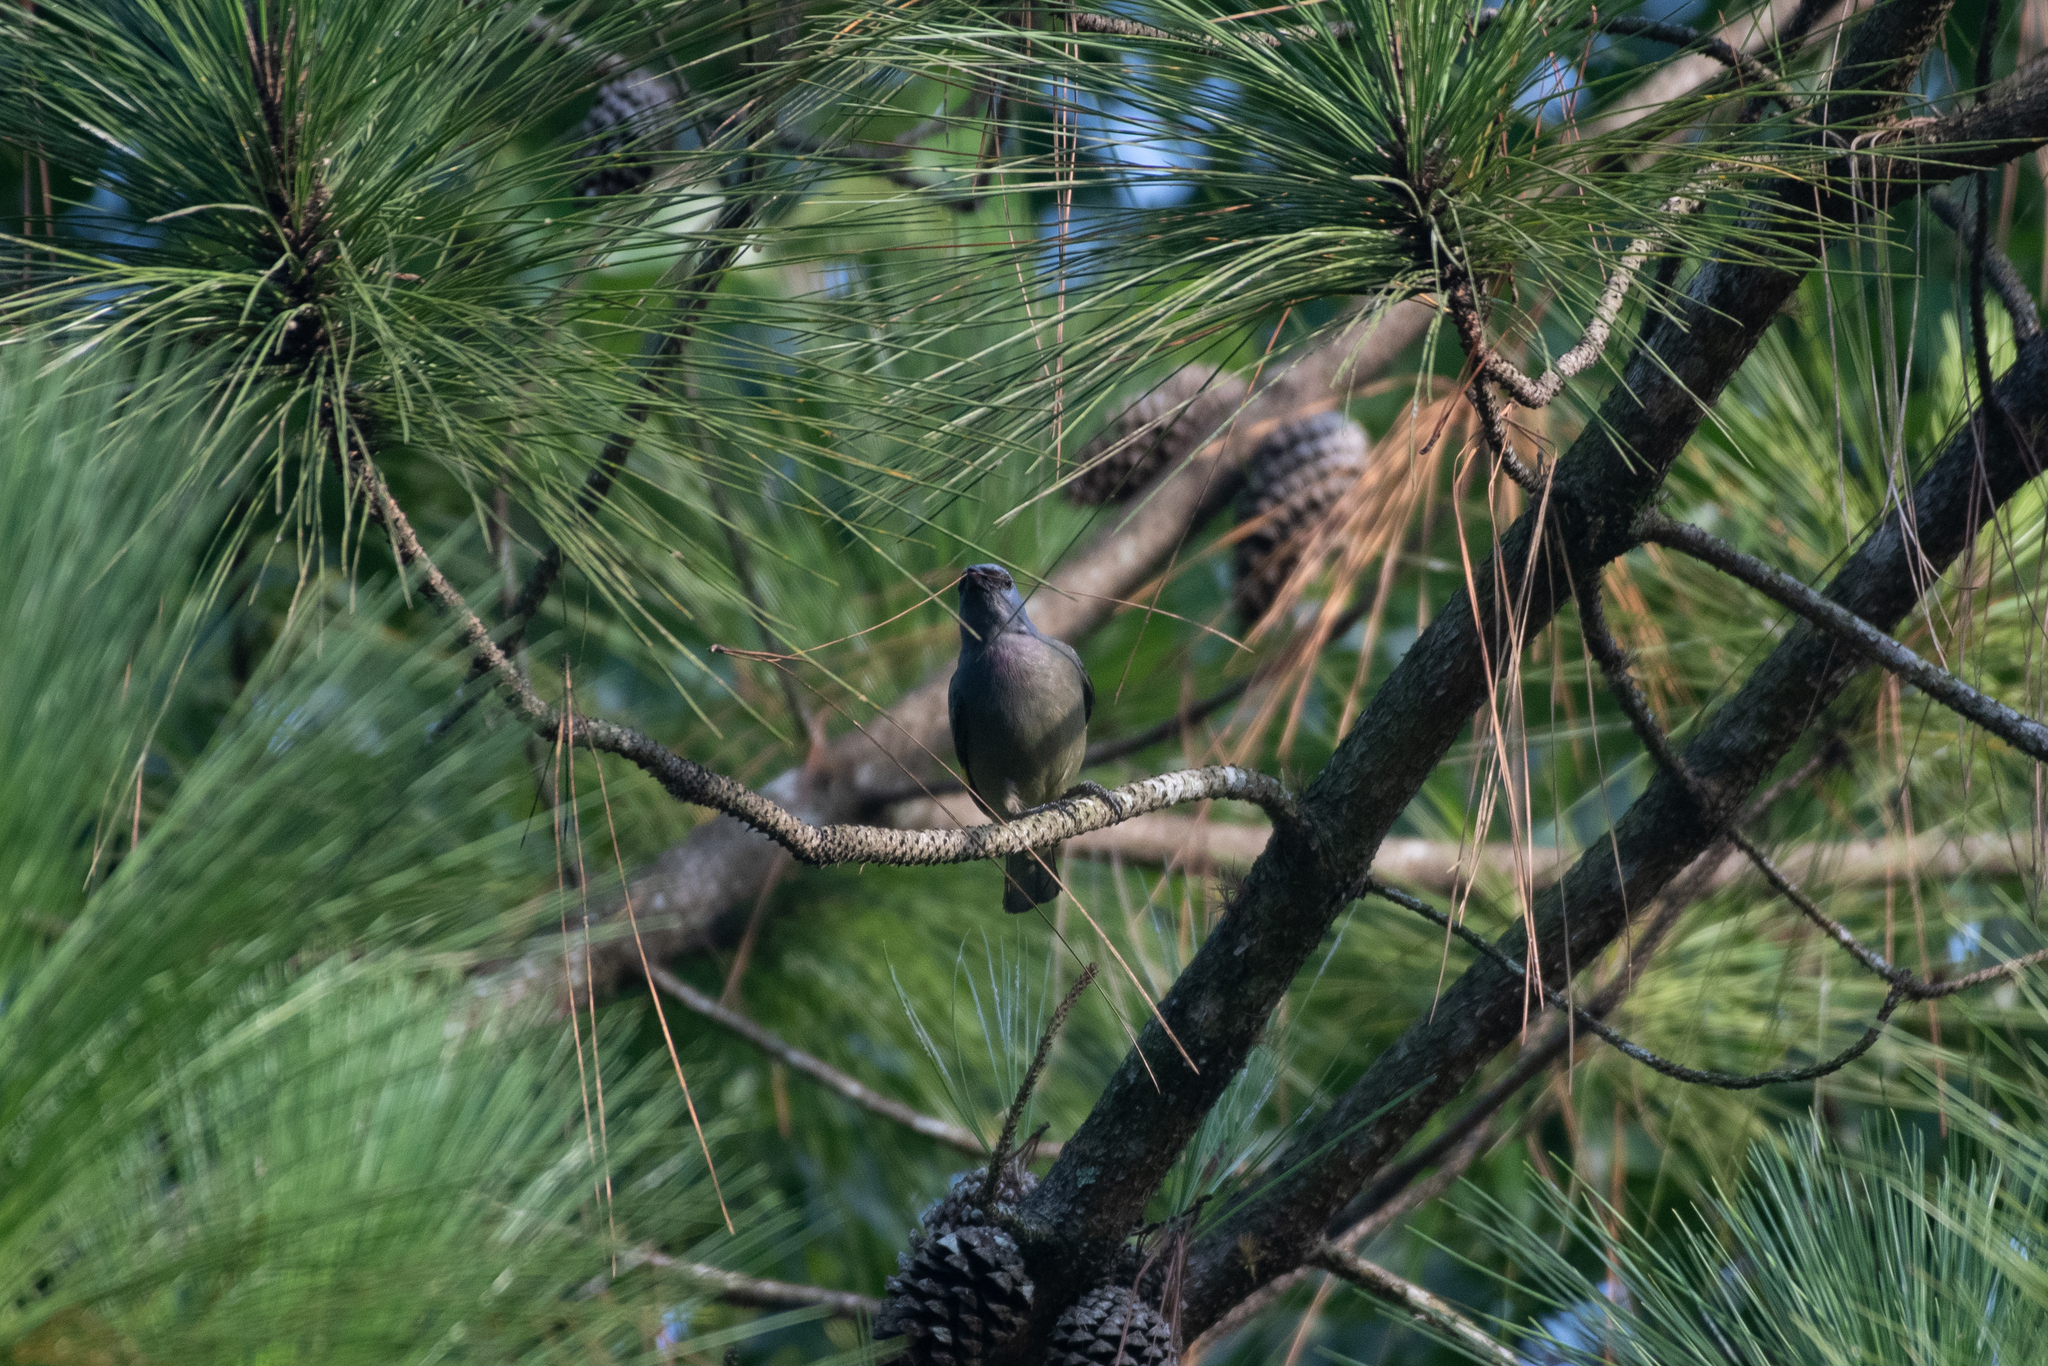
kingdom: Animalia
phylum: Chordata
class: Aves
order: Passeriformes
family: Thraupidae
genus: Thraupis
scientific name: Thraupis abbas
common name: Yellow-winged tanager
